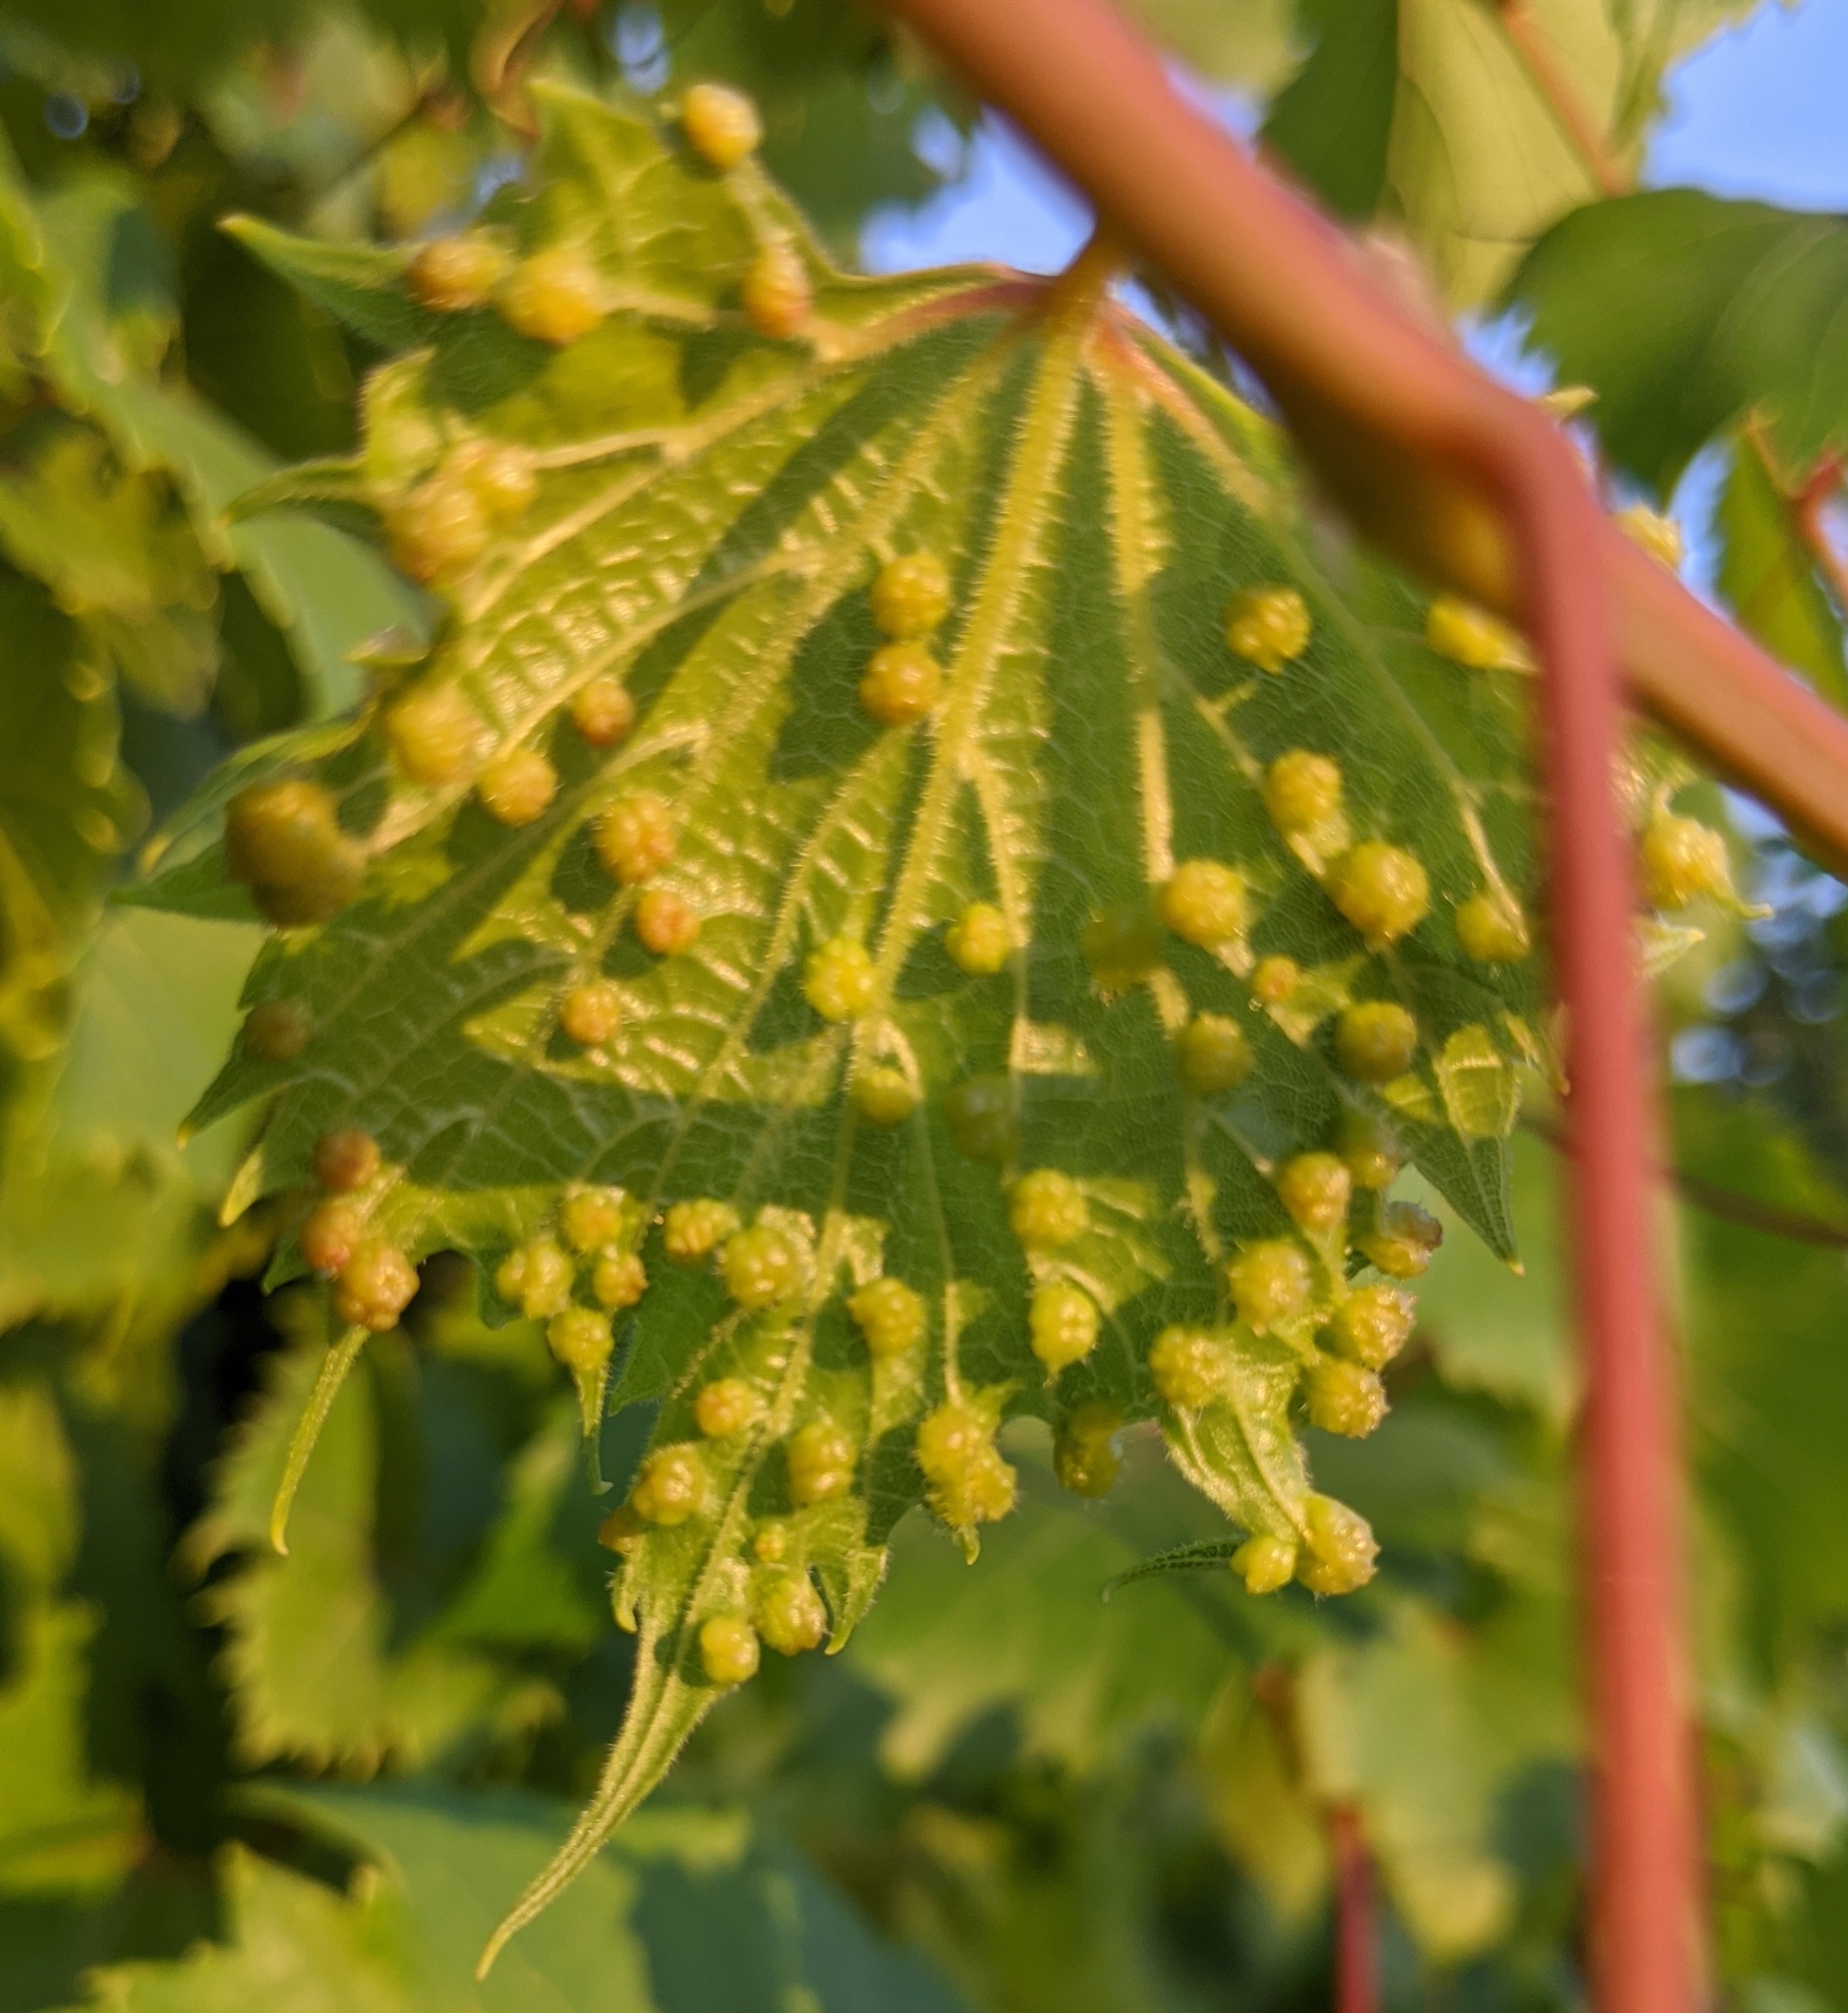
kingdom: Animalia
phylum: Arthropoda
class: Insecta
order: Hemiptera
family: Phylloxeridae
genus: Daktulosphaira
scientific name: Daktulosphaira vitifoliae
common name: Grape phylloxera
